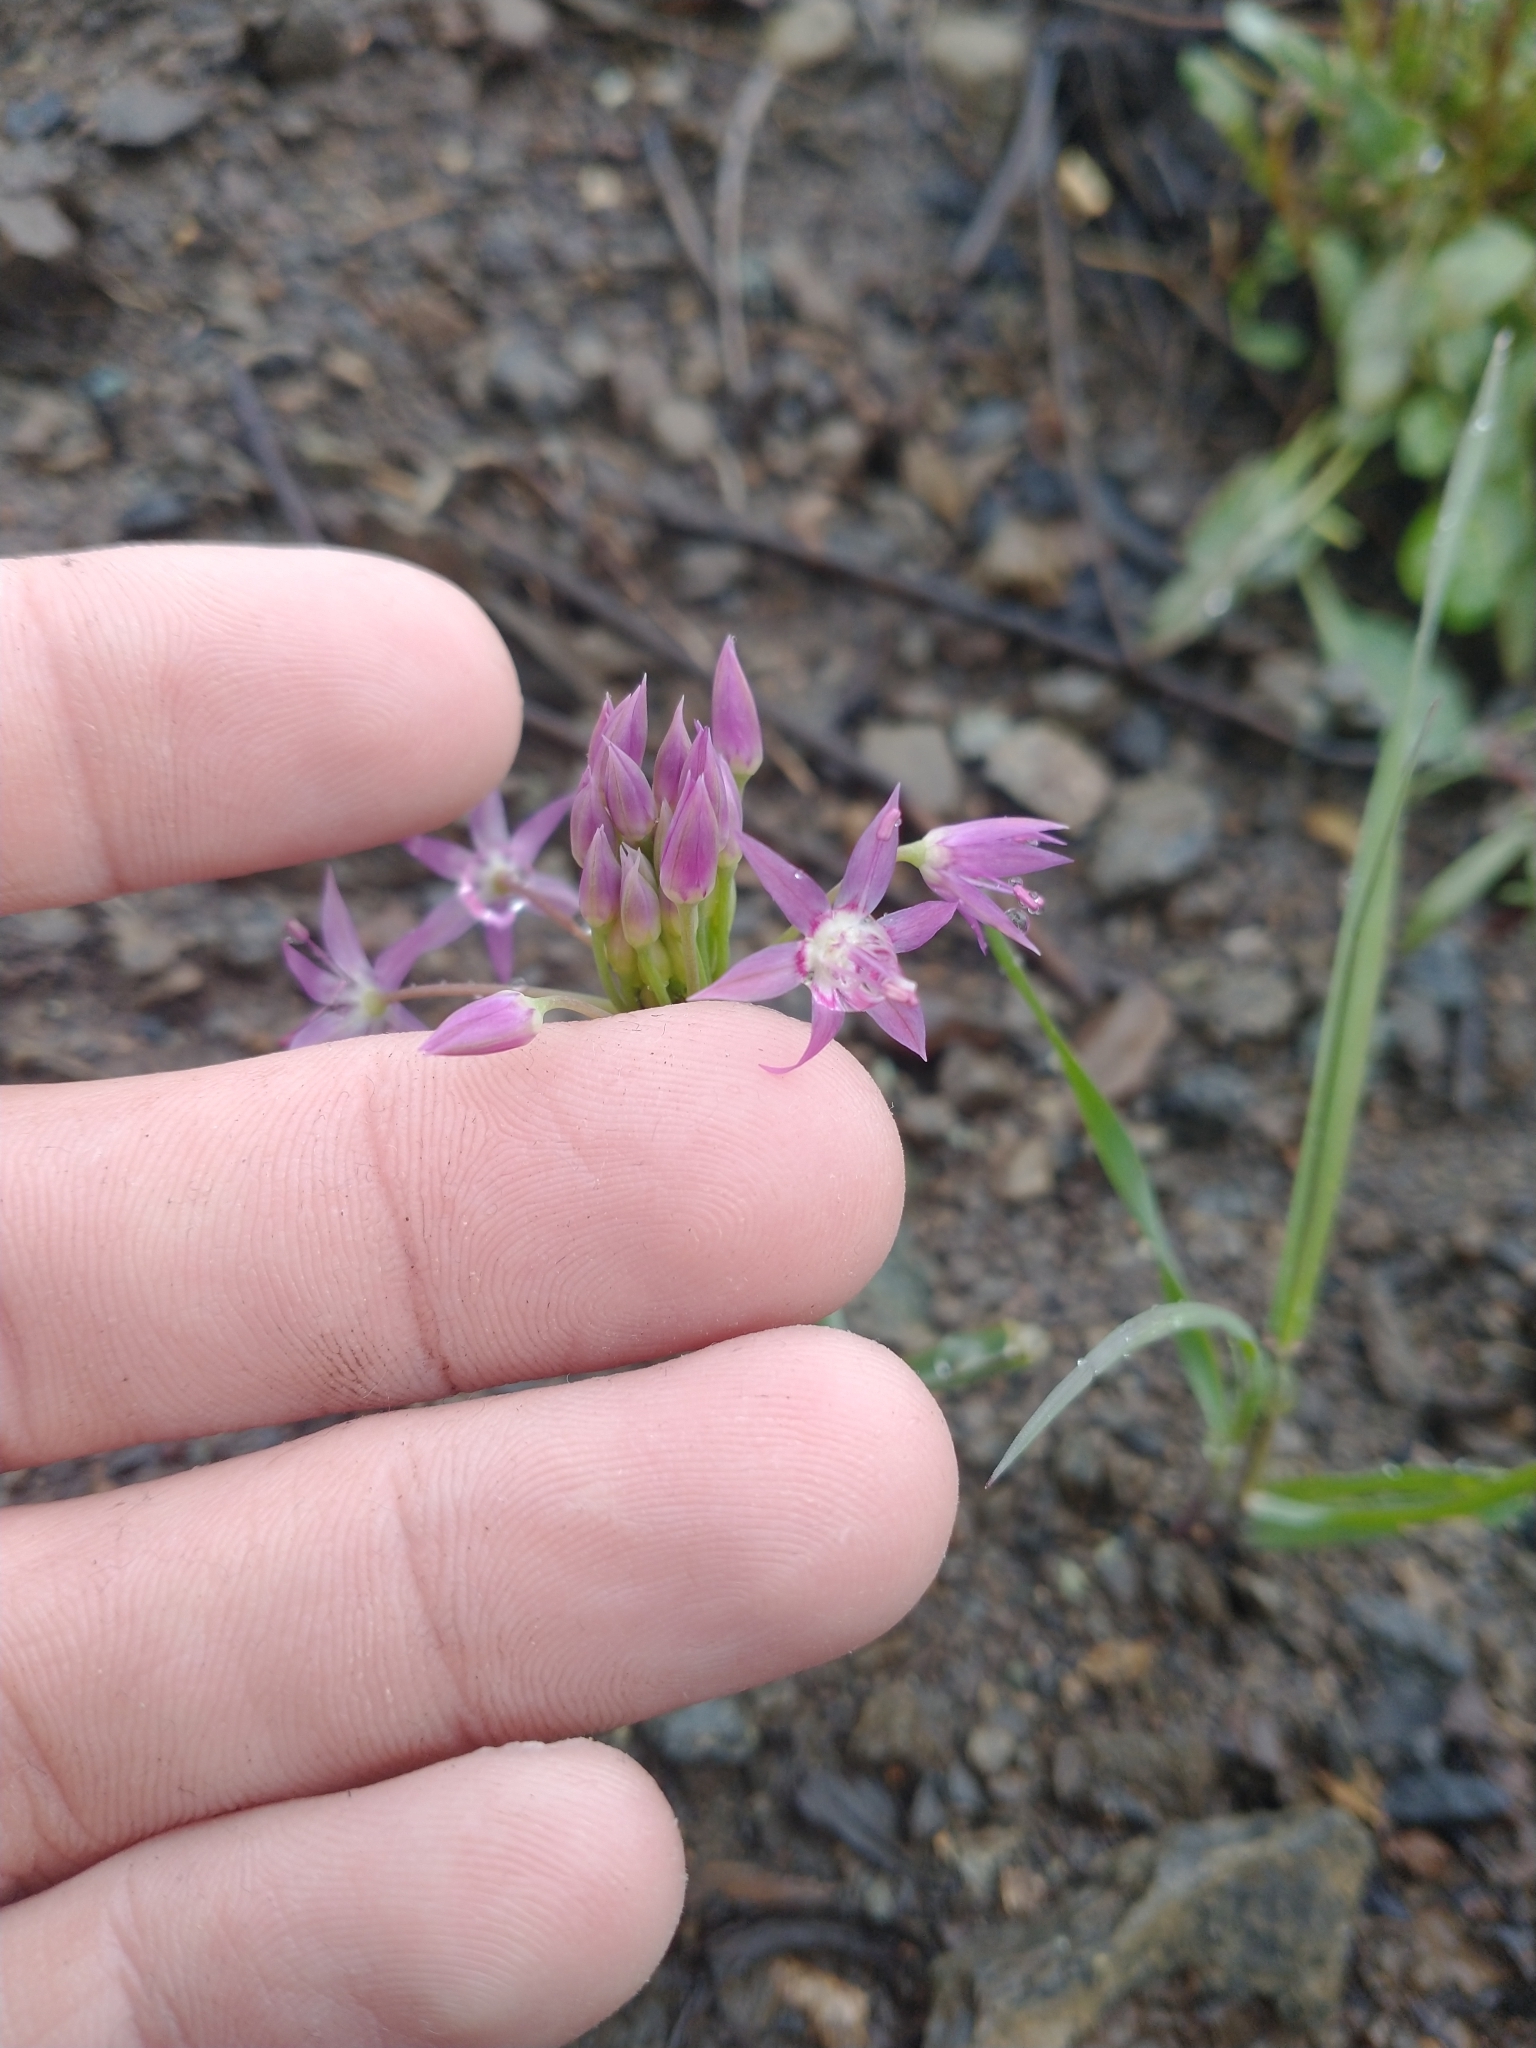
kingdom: Plantae
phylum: Tracheophyta
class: Liliopsida
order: Asparagales
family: Amaryllidaceae
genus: Allium
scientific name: Allium campanulatum
